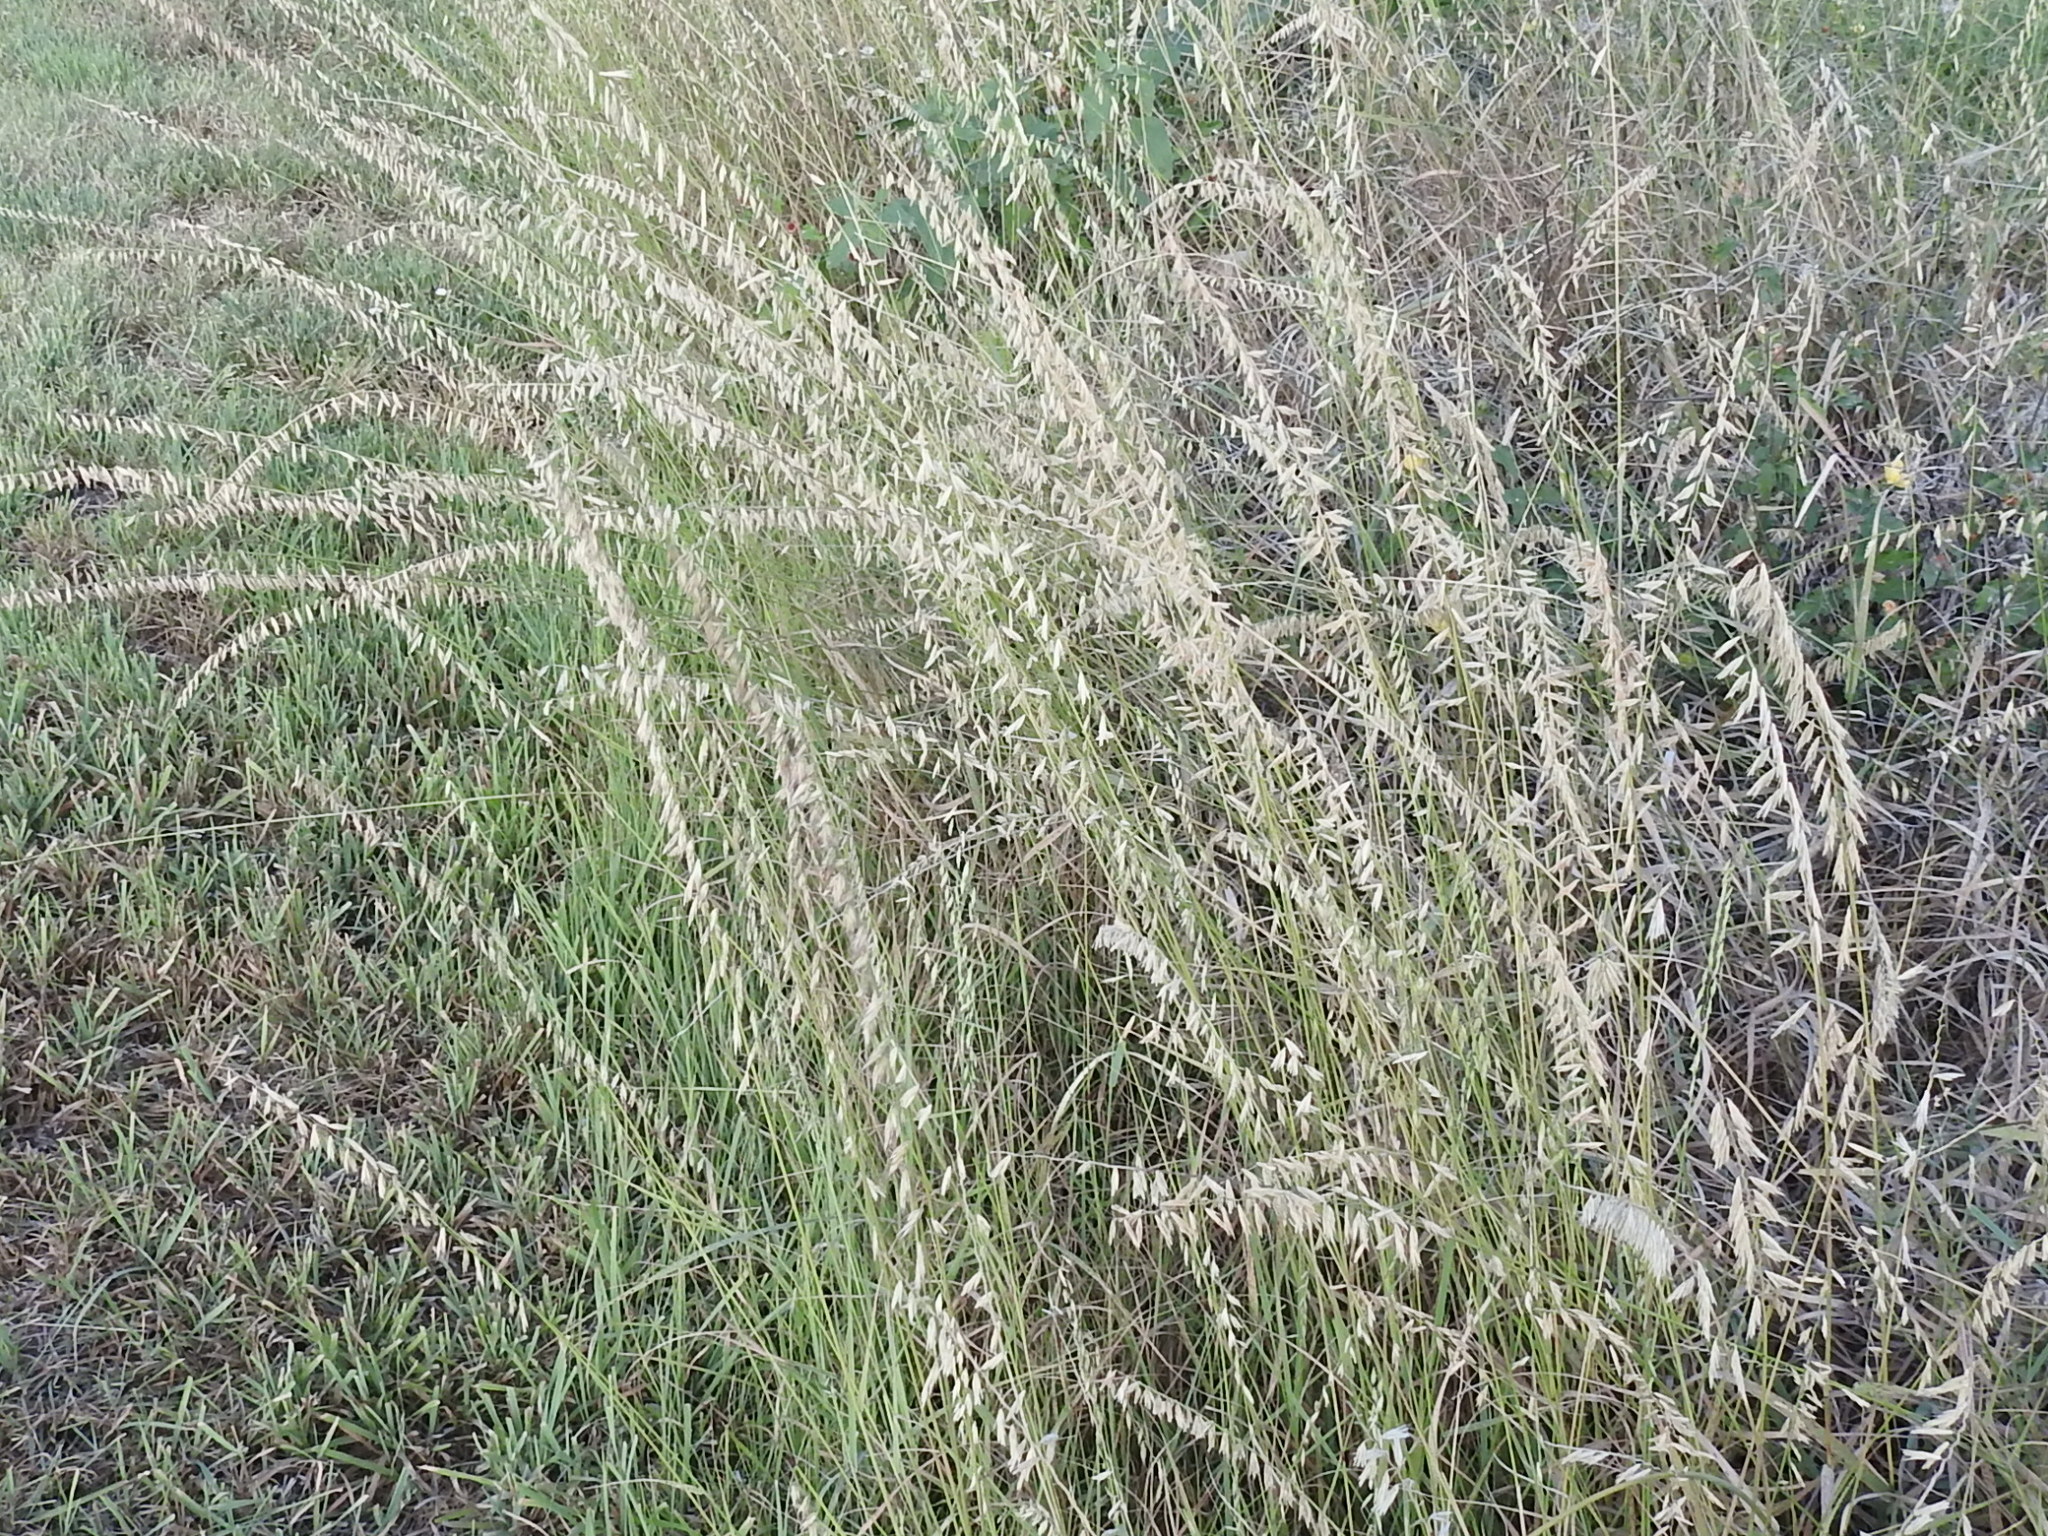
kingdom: Plantae
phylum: Tracheophyta
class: Liliopsida
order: Poales
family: Poaceae
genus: Bouteloua
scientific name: Bouteloua curtipendula
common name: Side-oats grama
